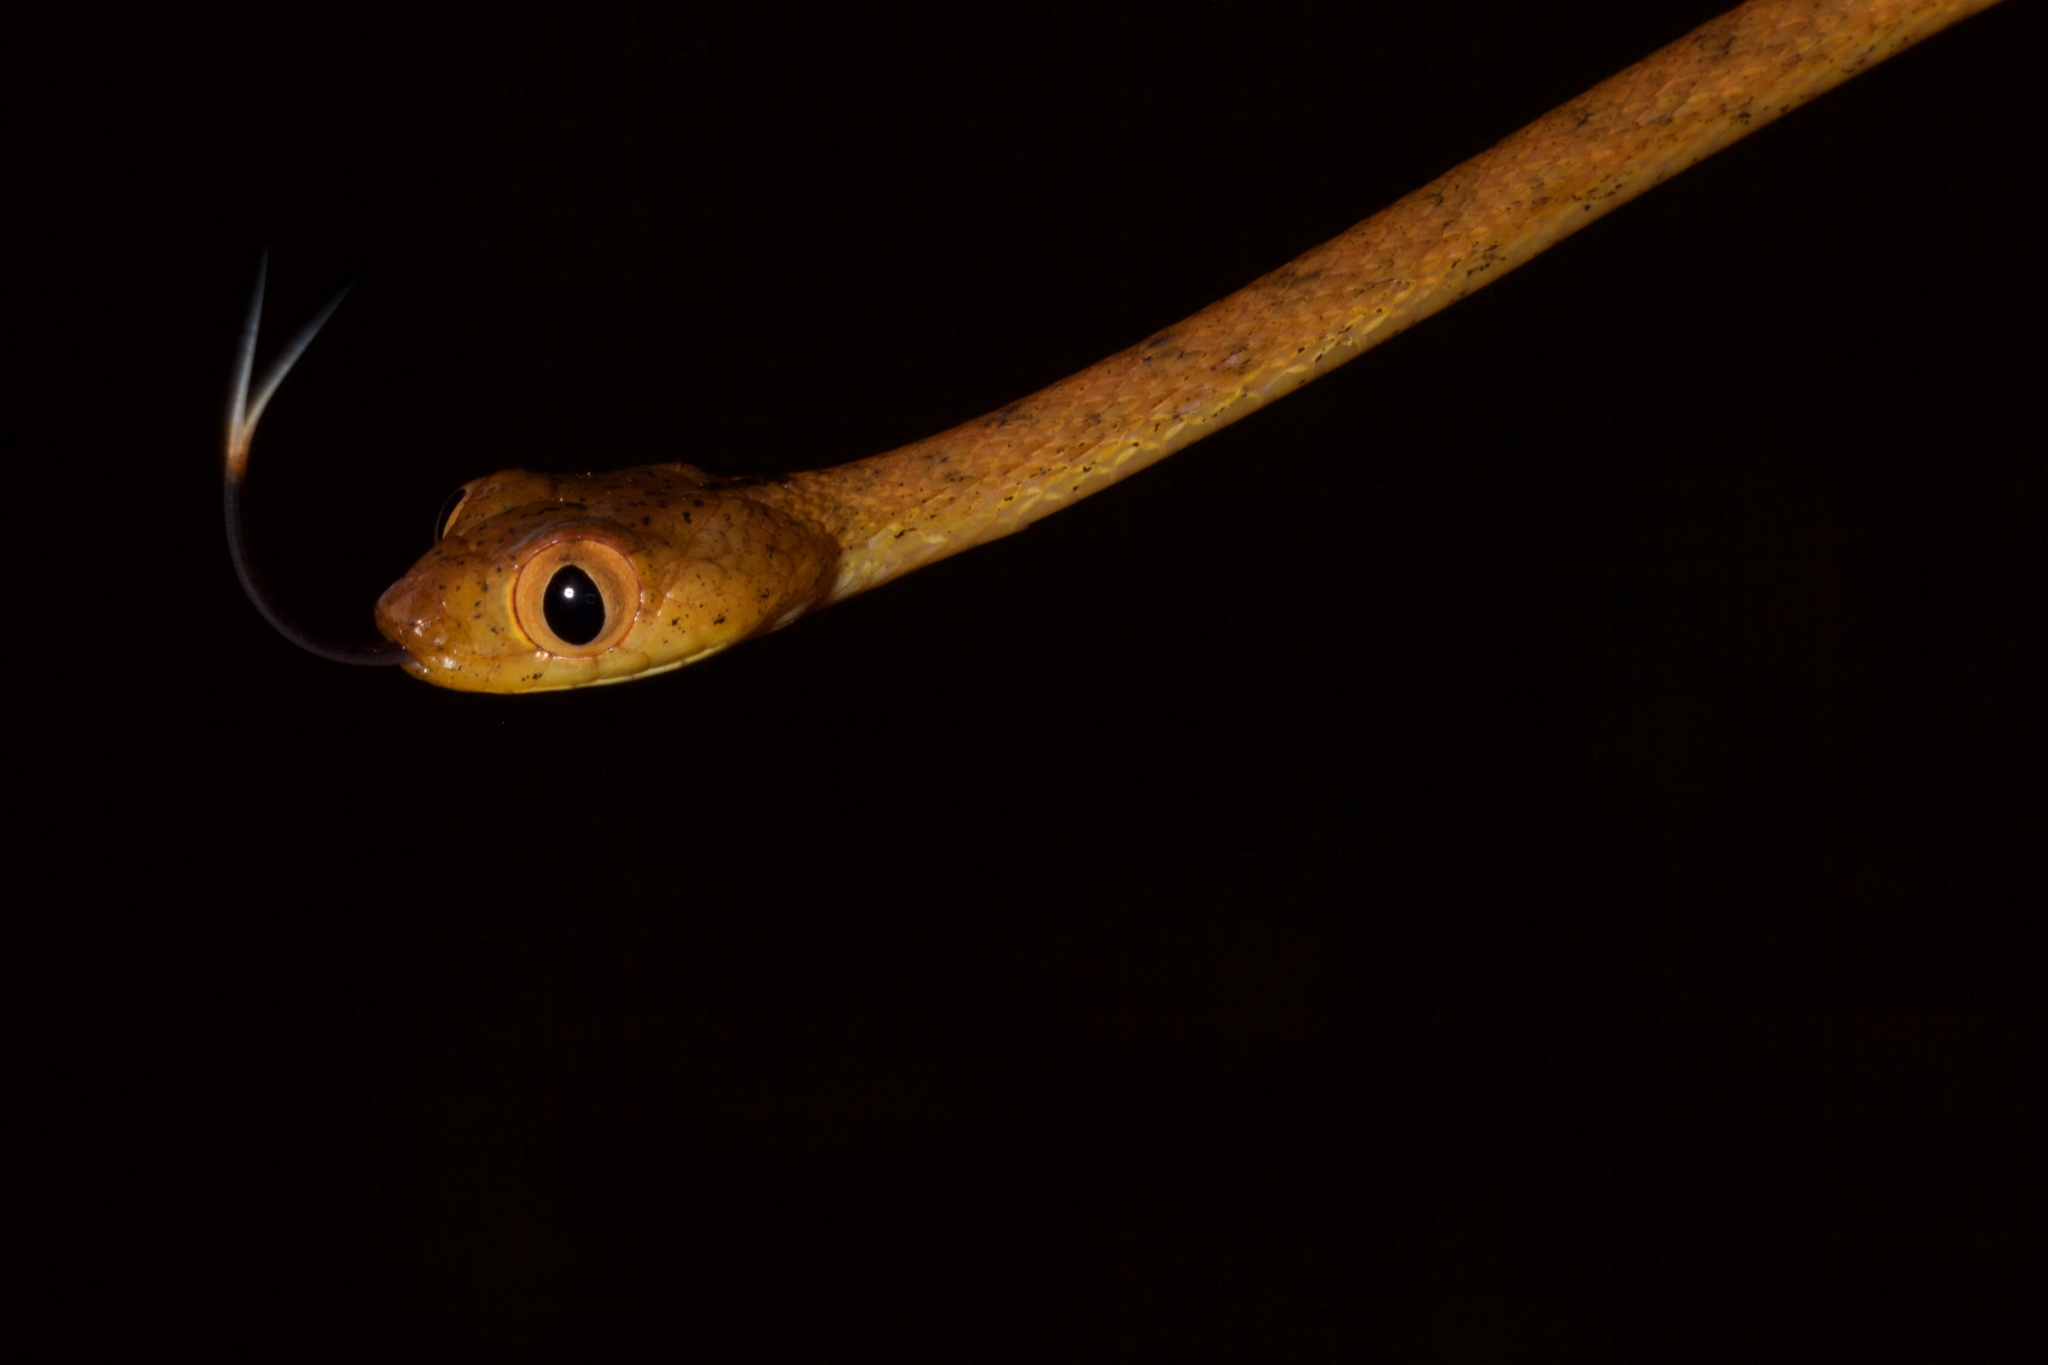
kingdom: Animalia
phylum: Chordata
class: Squamata
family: Colubridae
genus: Imantodes
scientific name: Imantodes inornatus
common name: Western tree snake
